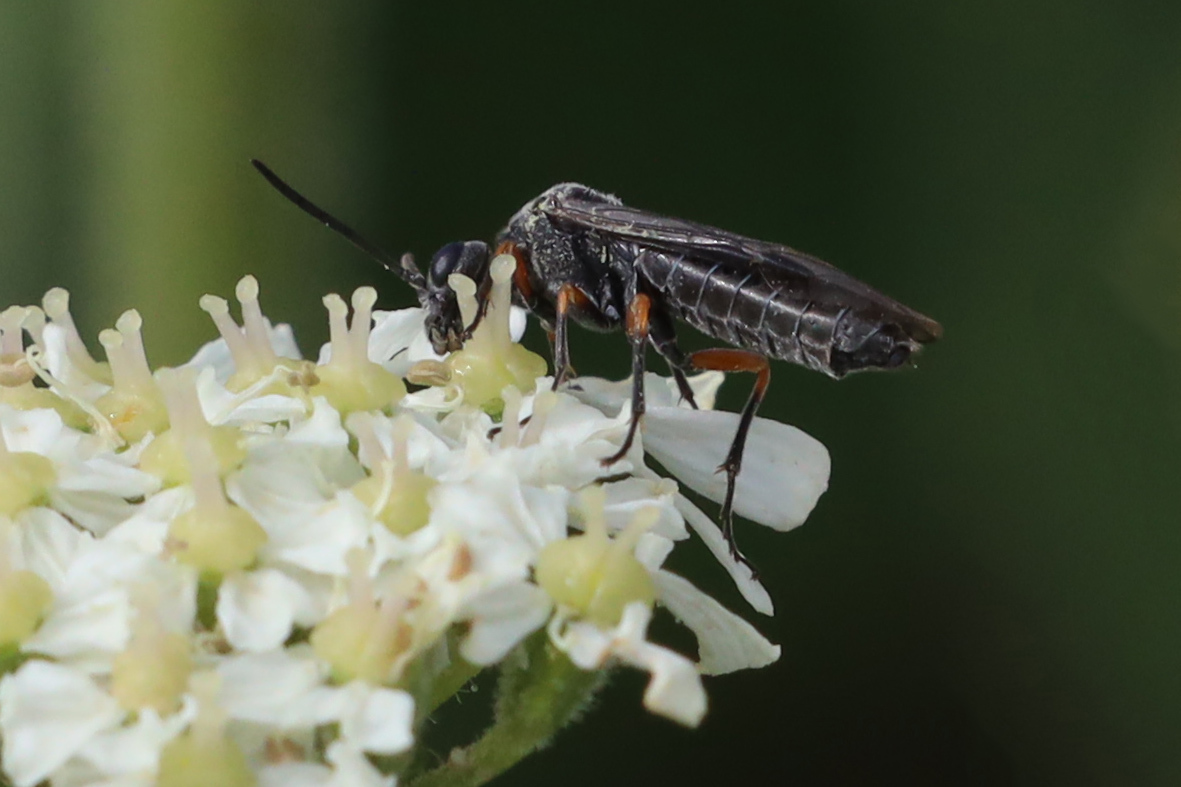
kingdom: Animalia
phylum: Arthropoda
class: Insecta
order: Hymenoptera
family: Tenthredinidae
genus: Dolerus
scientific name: Dolerus
